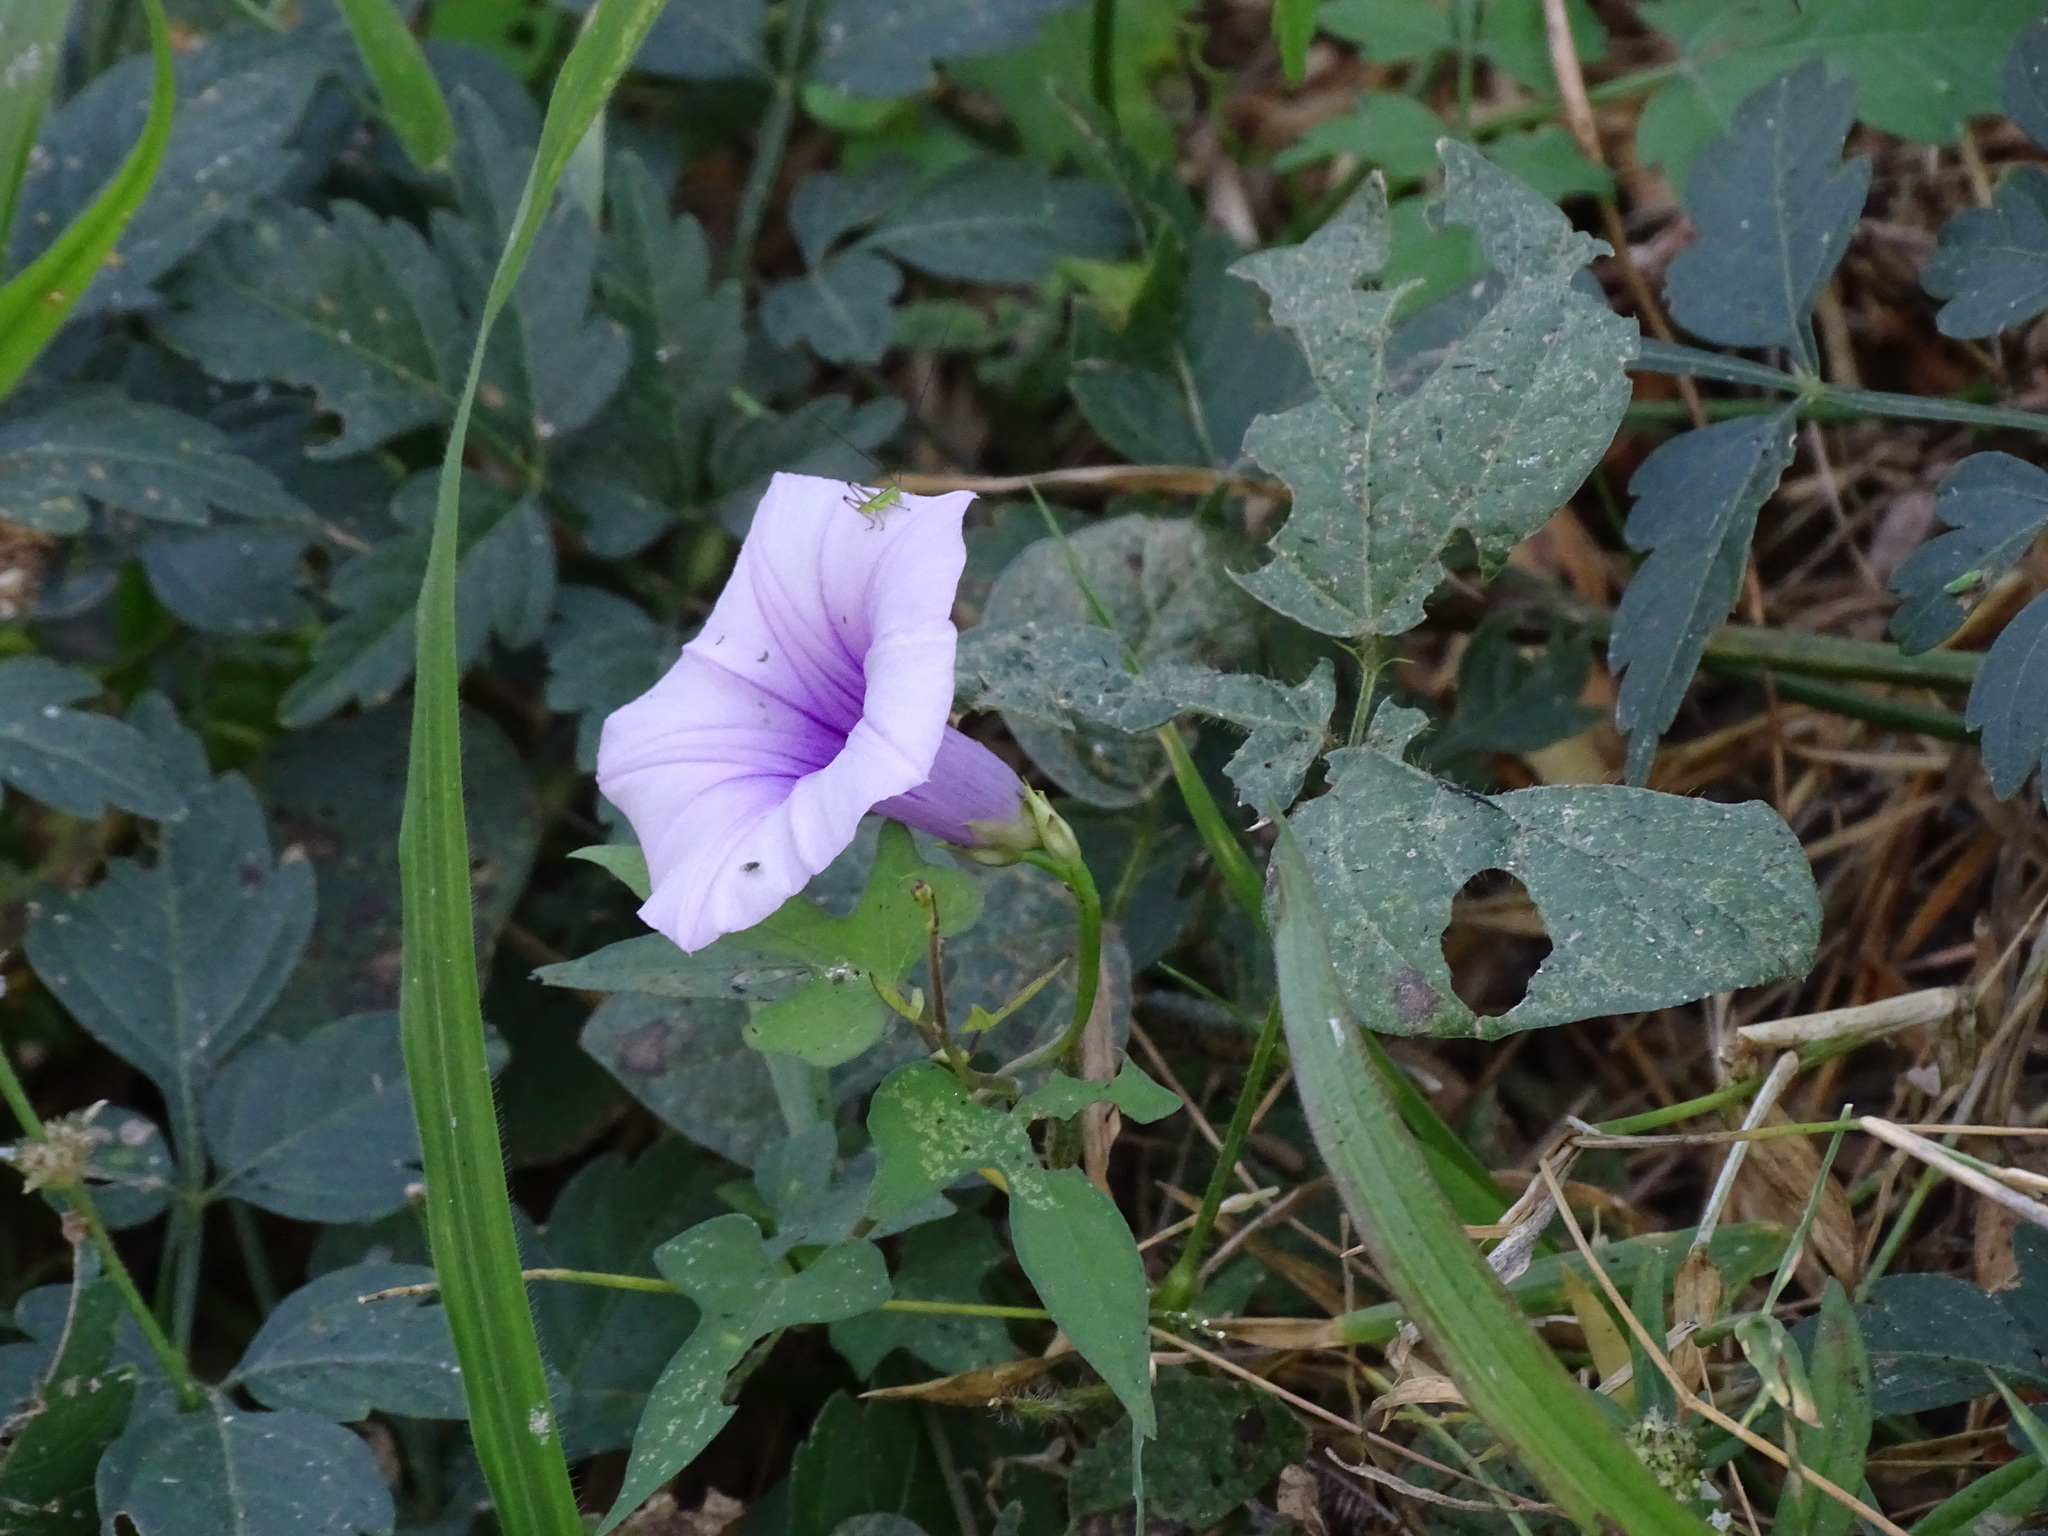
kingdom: Plantae
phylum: Tracheophyta
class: Magnoliopsida
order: Solanales
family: Convolvulaceae
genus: Ipomoea
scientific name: Ipomoea batatas
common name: Sweet-potato
